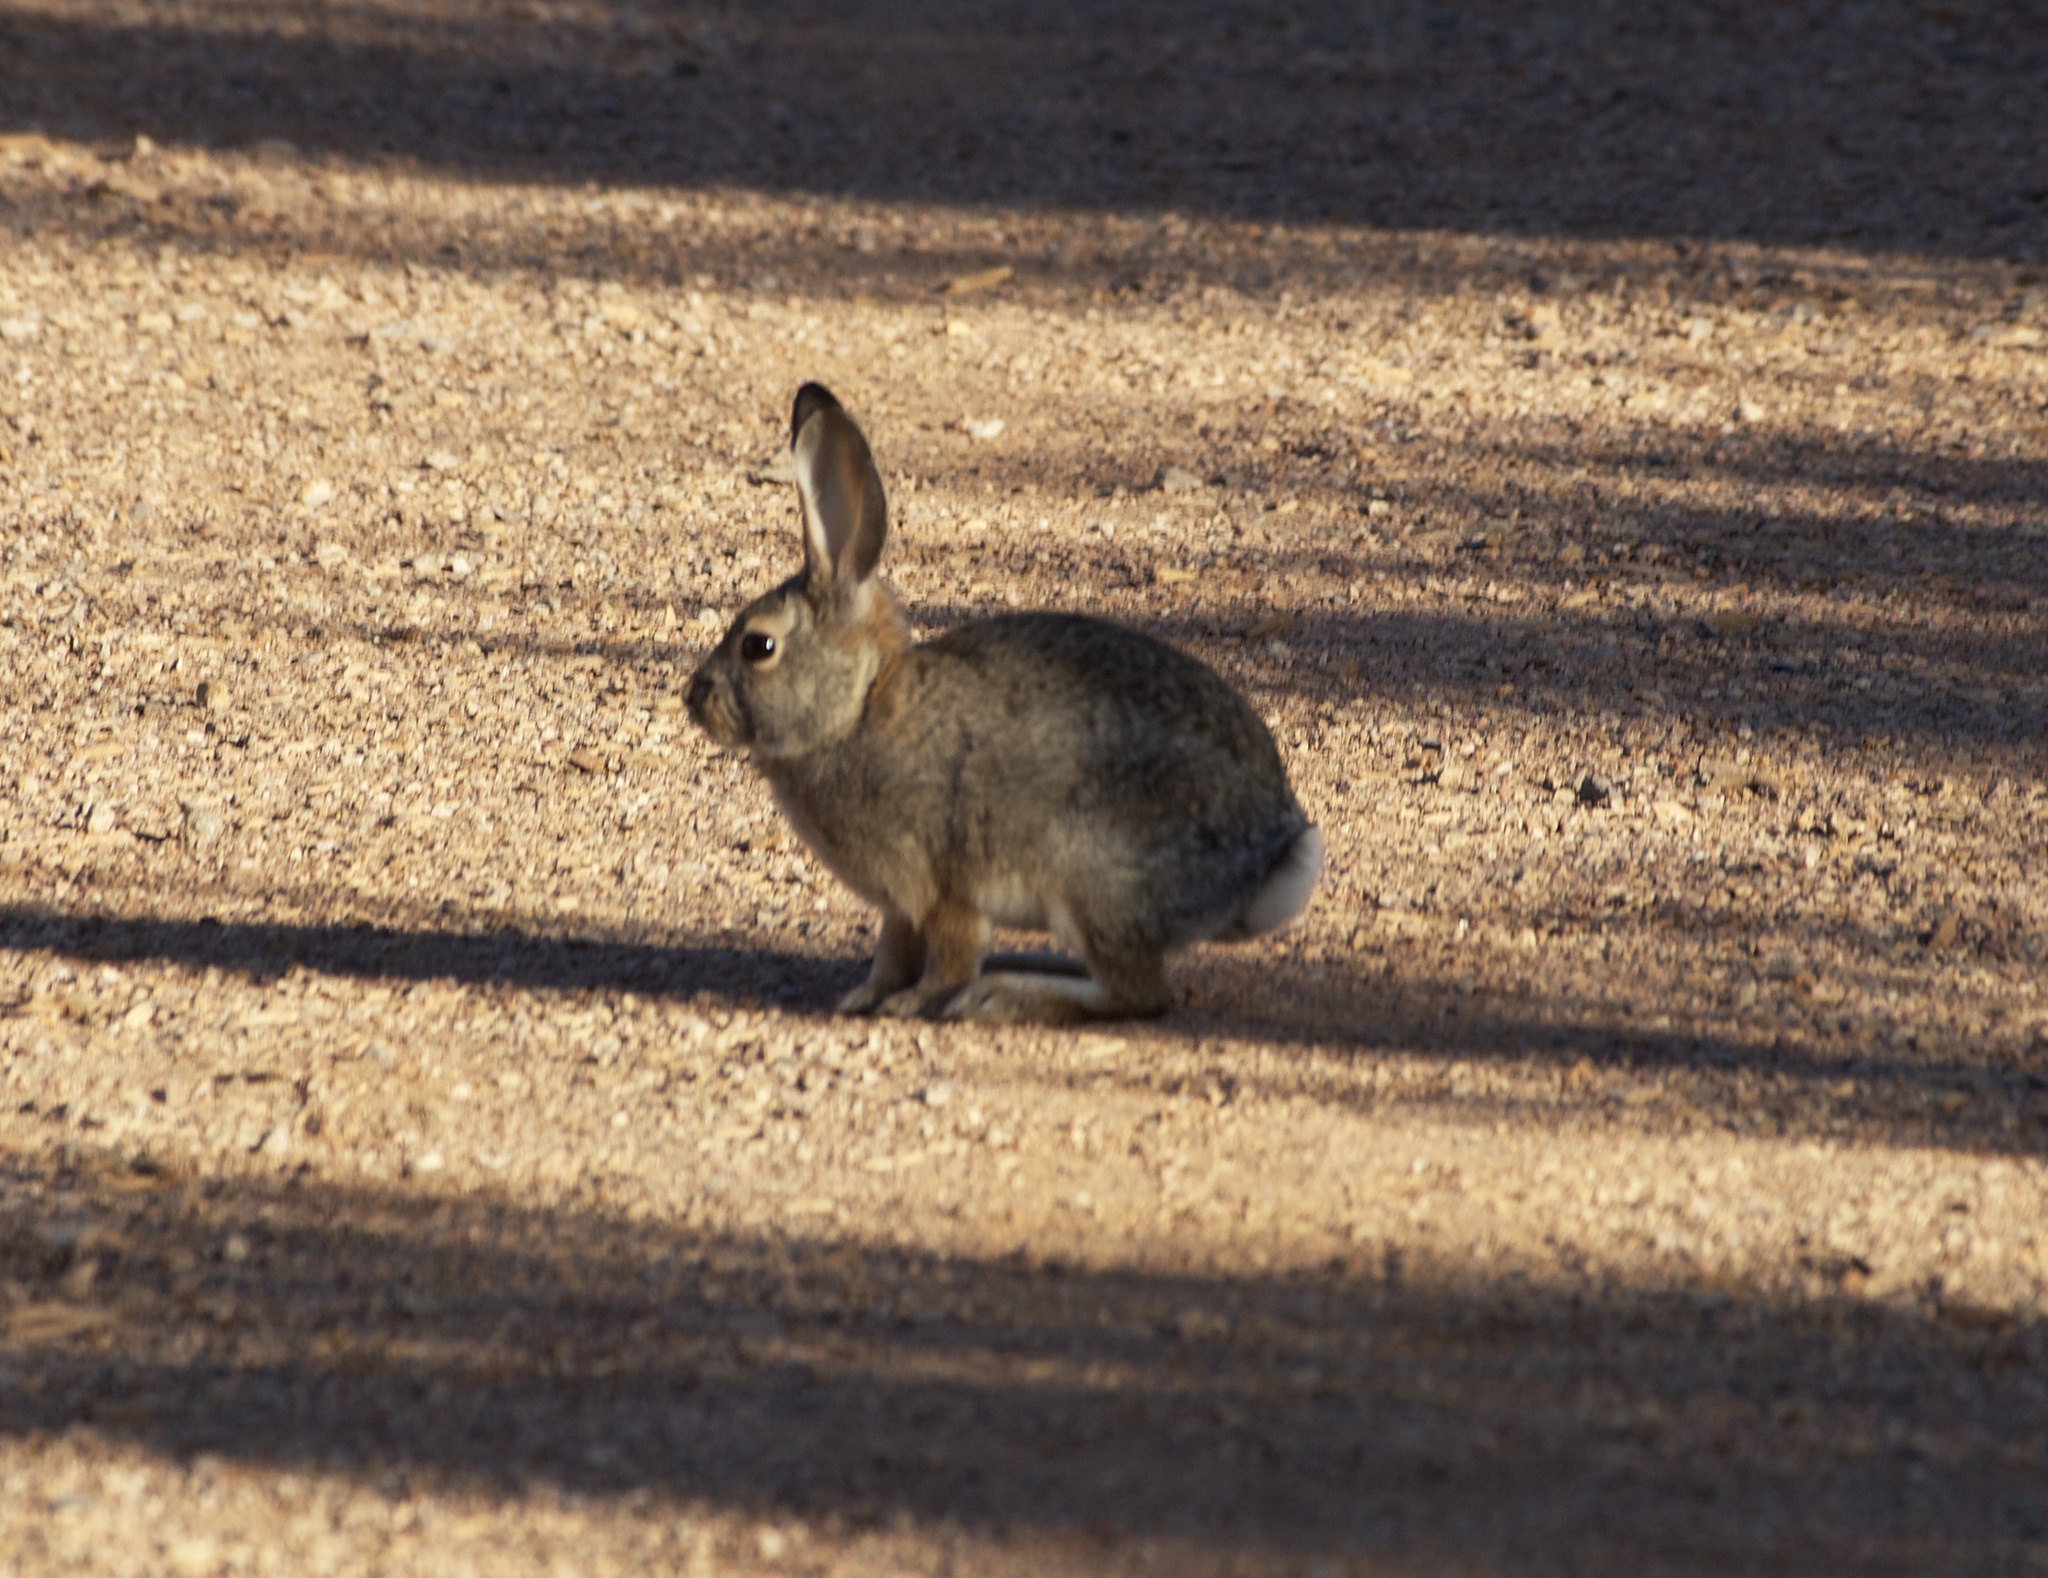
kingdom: Animalia
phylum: Chordata
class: Mammalia
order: Lagomorpha
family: Leporidae
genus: Sylvilagus
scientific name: Sylvilagus audubonii
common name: Desert cottontail
